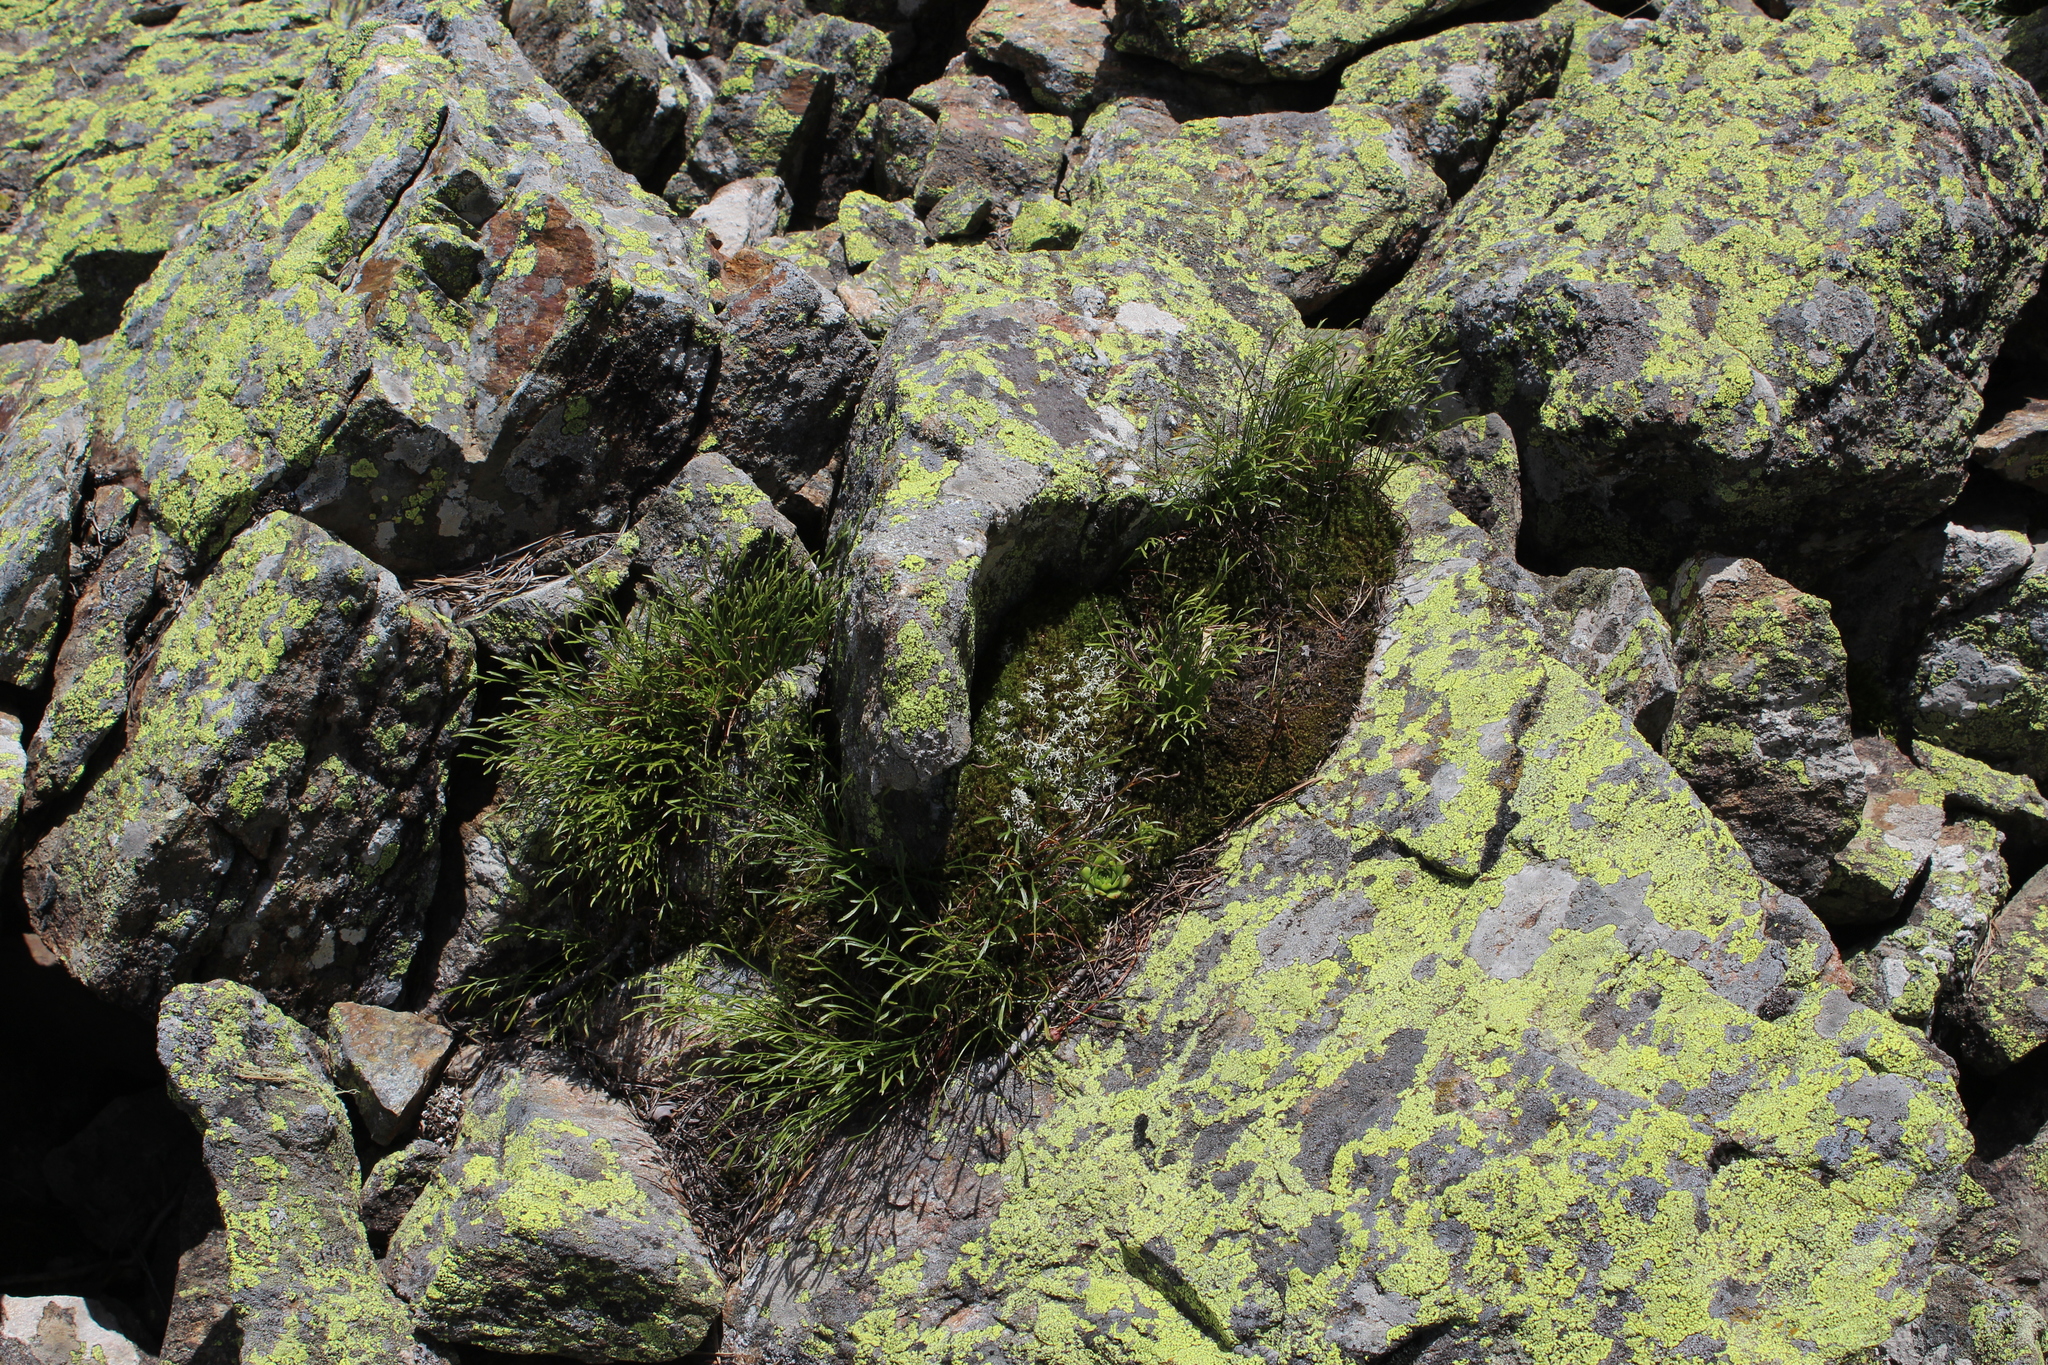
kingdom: Plantae
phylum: Tracheophyta
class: Polypodiopsida
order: Polypodiales
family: Aspleniaceae
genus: Asplenium
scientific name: Asplenium septentrionale
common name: Forked spleenwort
